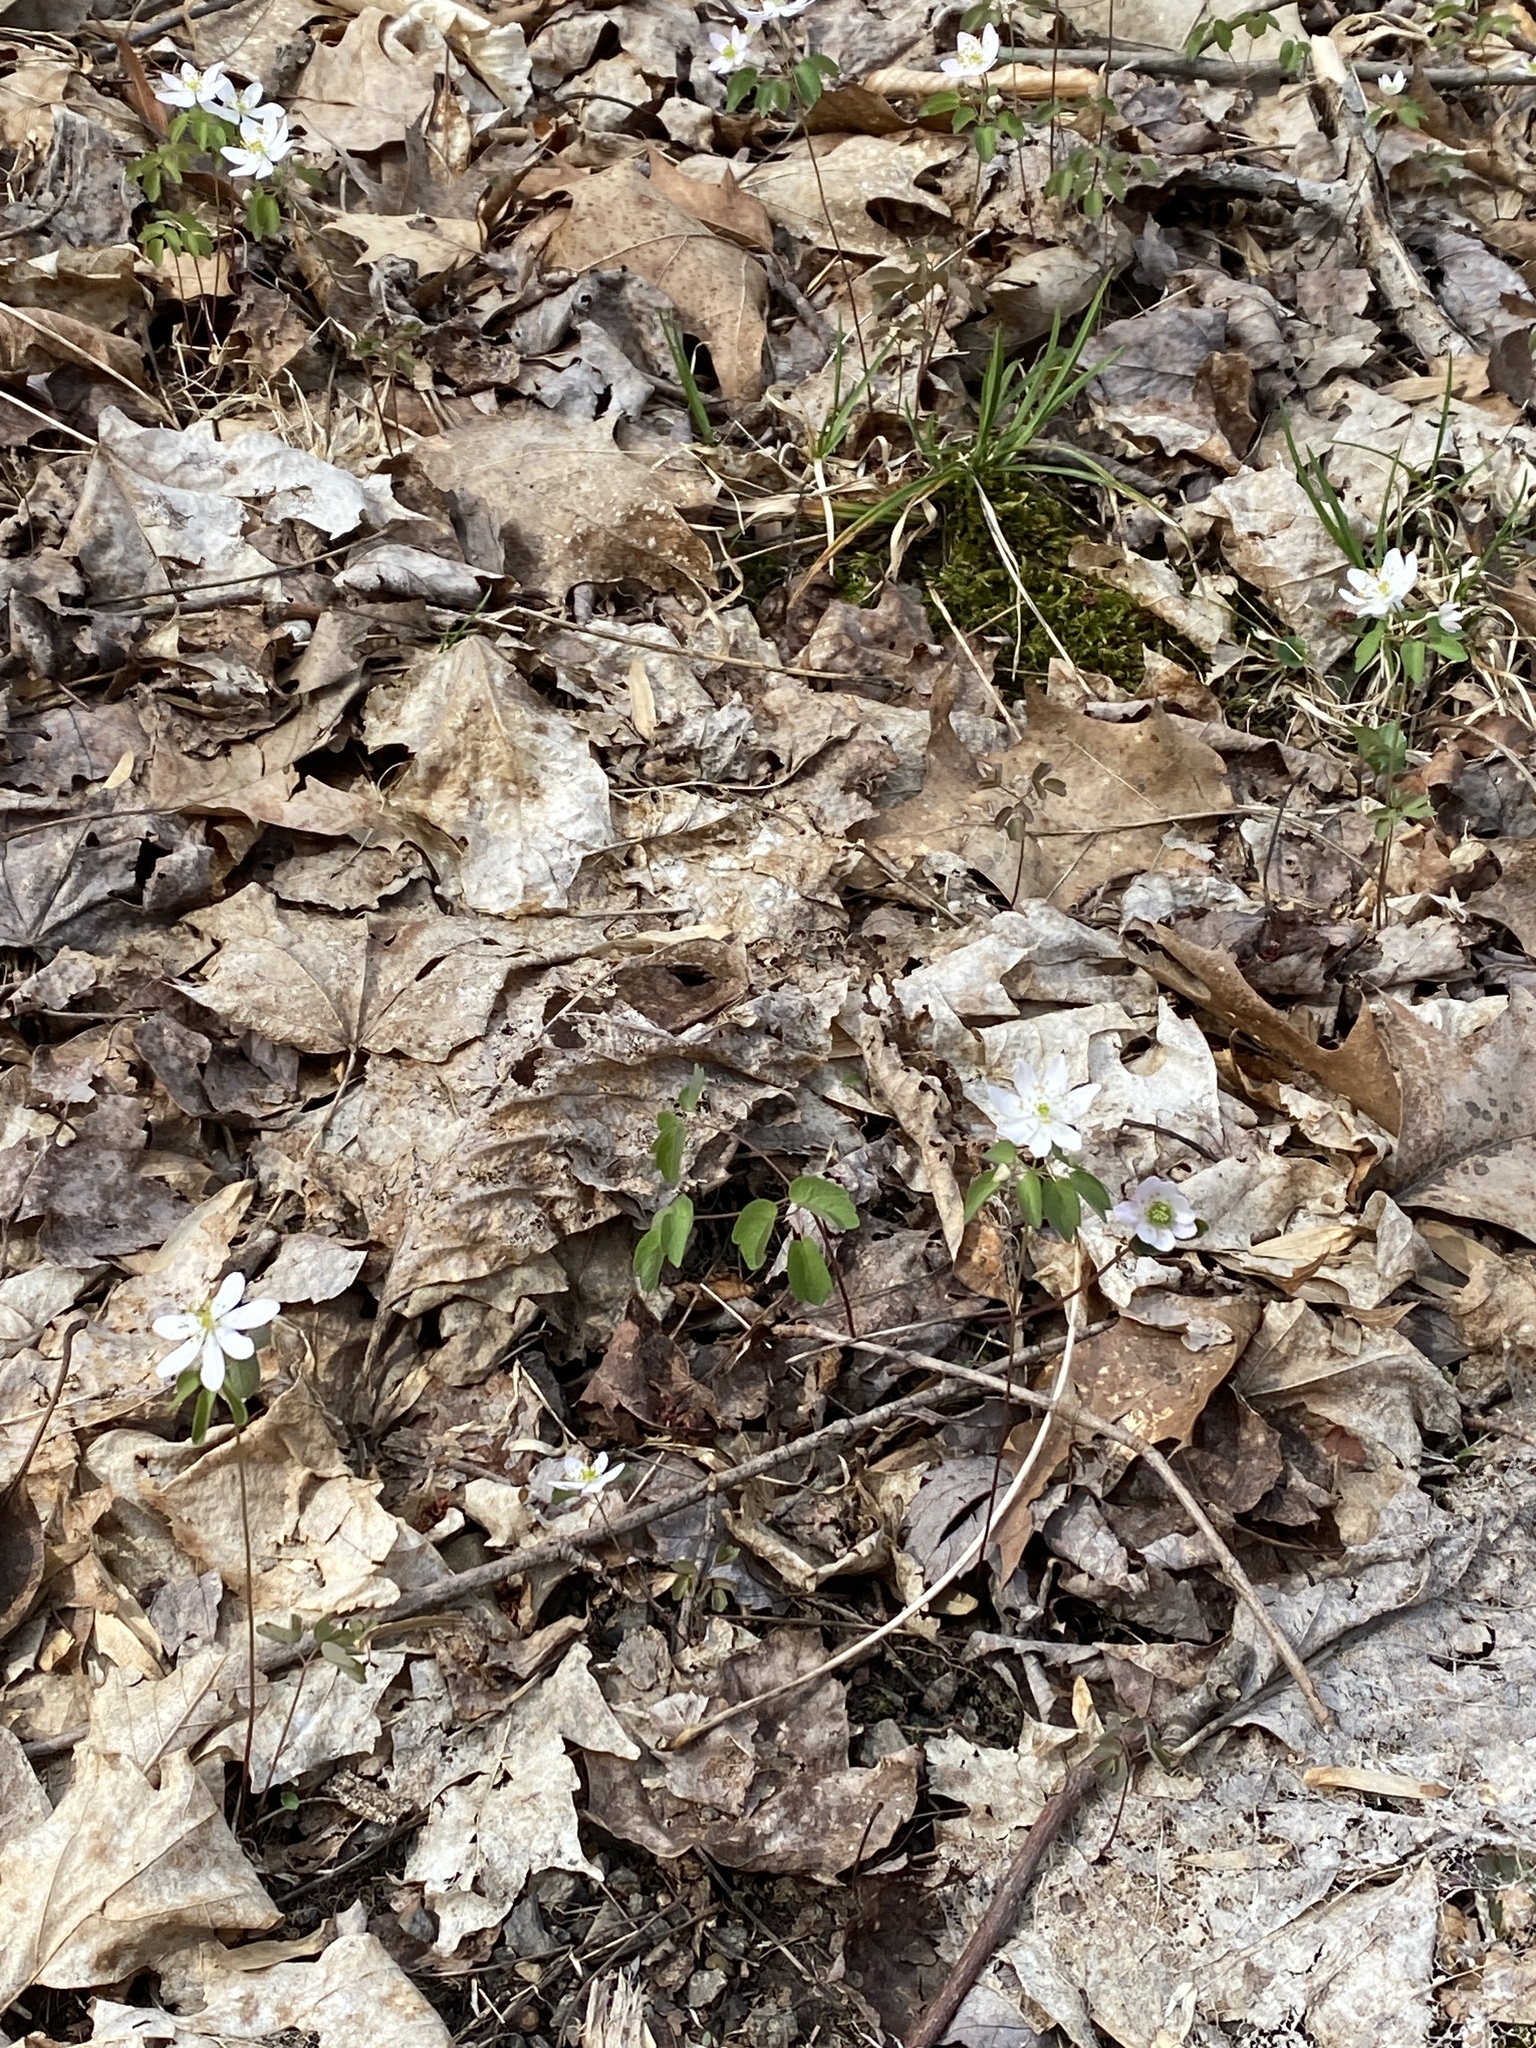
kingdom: Plantae
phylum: Tracheophyta
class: Magnoliopsida
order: Ranunculales
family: Ranunculaceae
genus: Thalictrum
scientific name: Thalictrum thalictroides
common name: Rue-anemone
